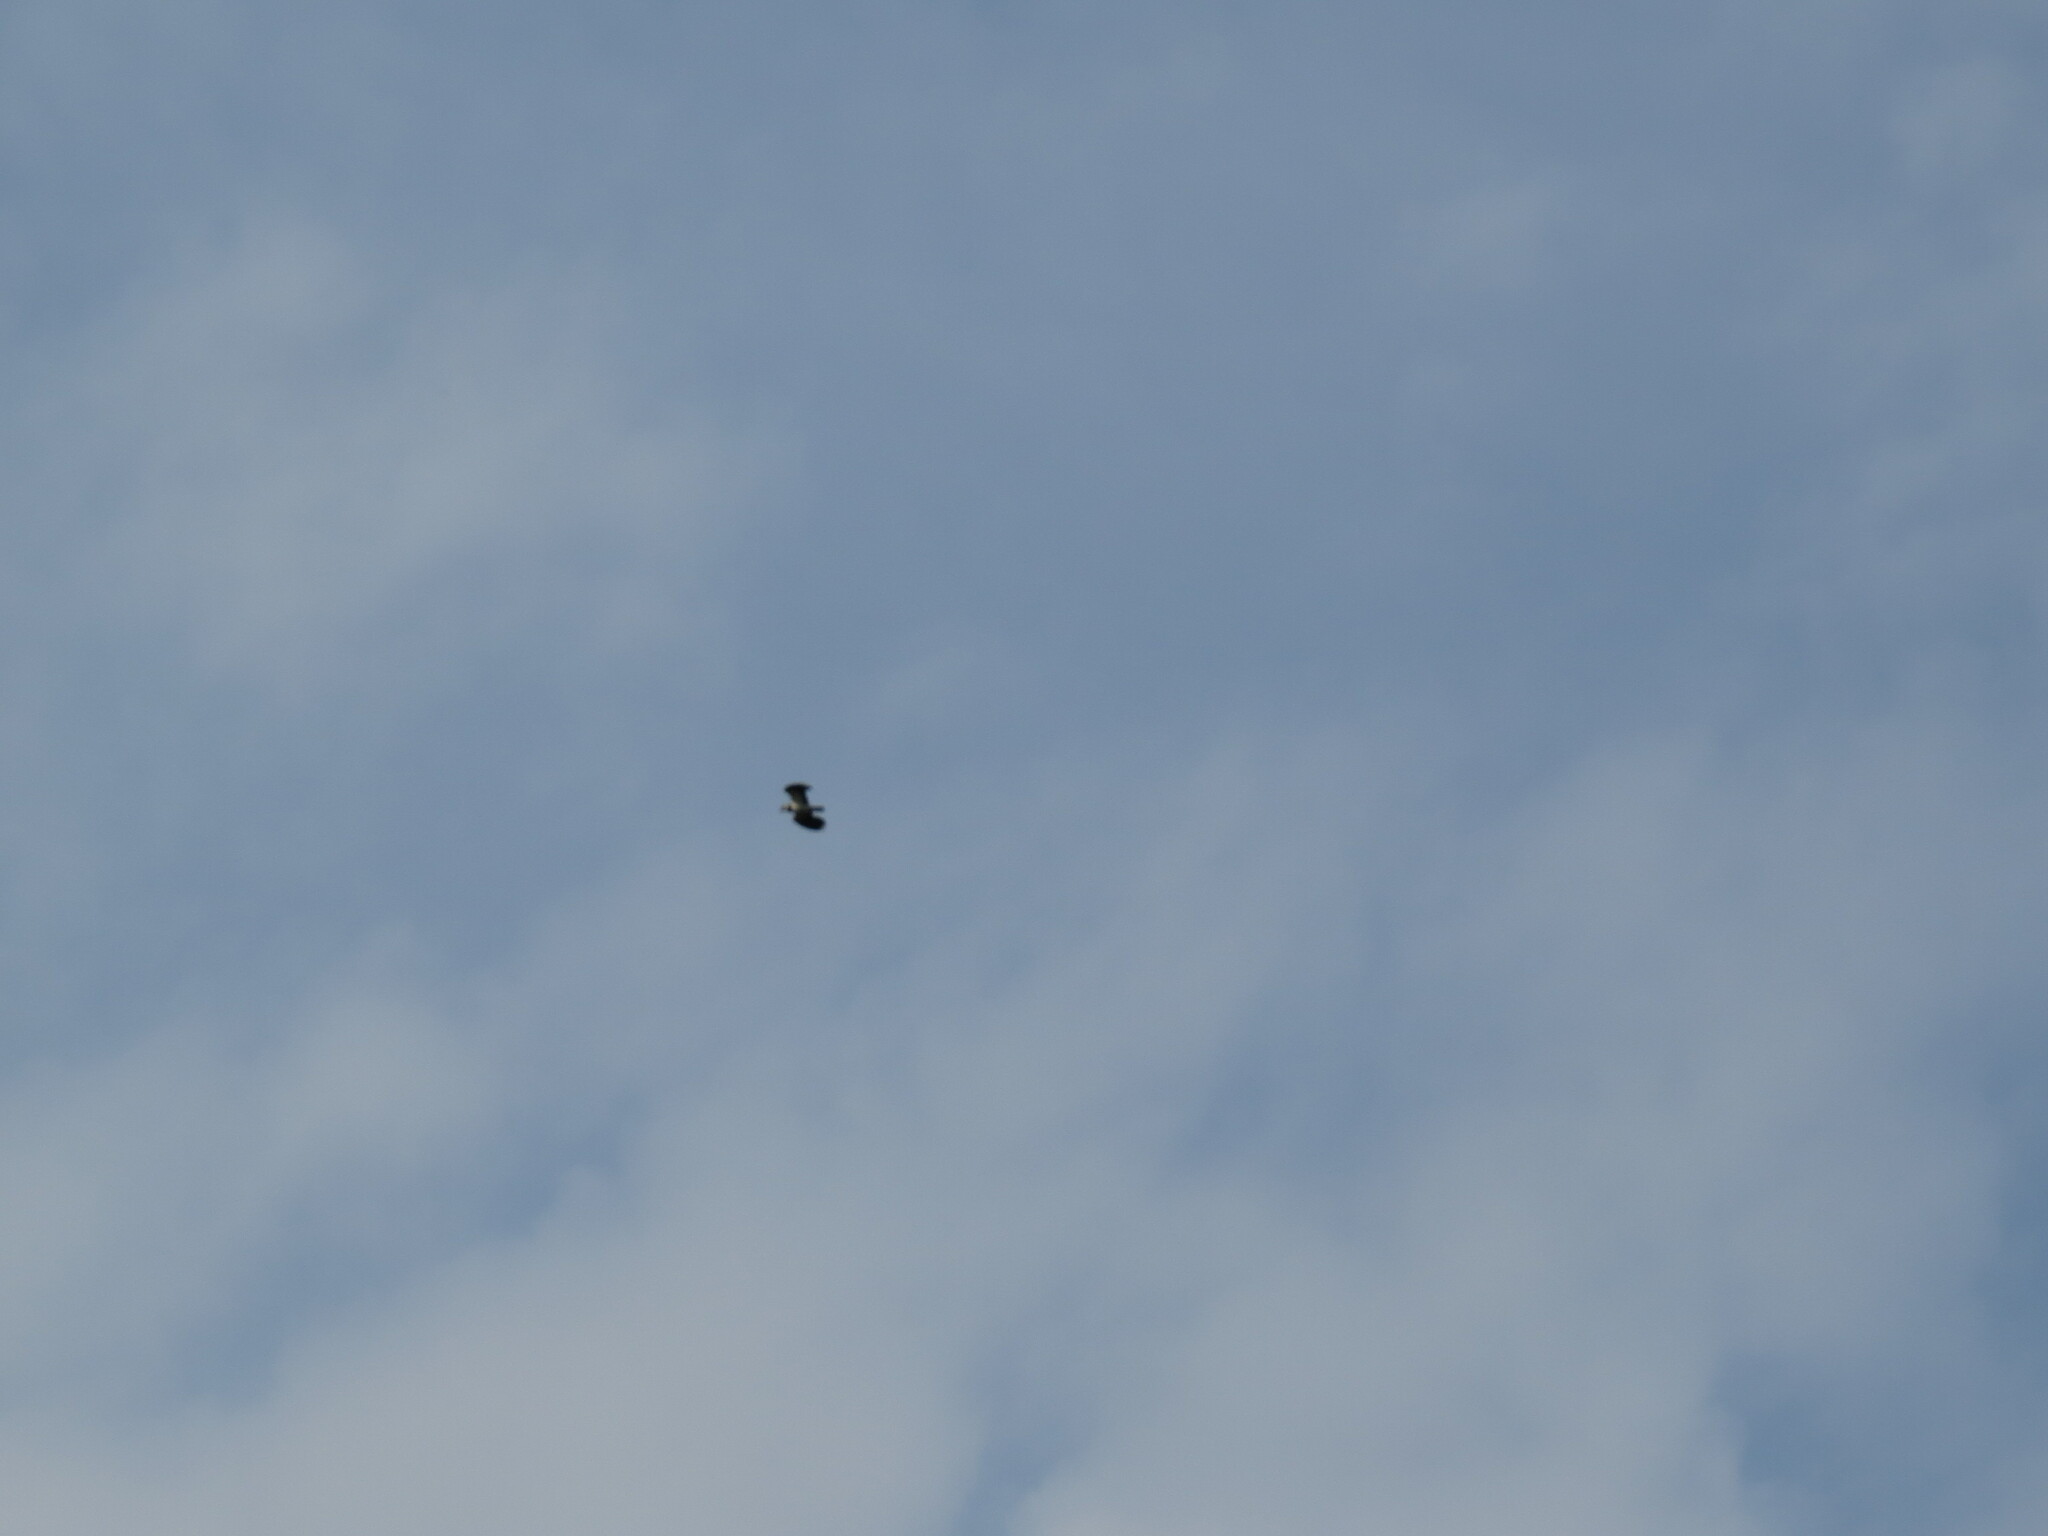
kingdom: Animalia
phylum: Chordata
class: Aves
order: Charadriiformes
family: Charadriidae
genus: Vanellus
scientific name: Vanellus vanellus
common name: Northern lapwing
